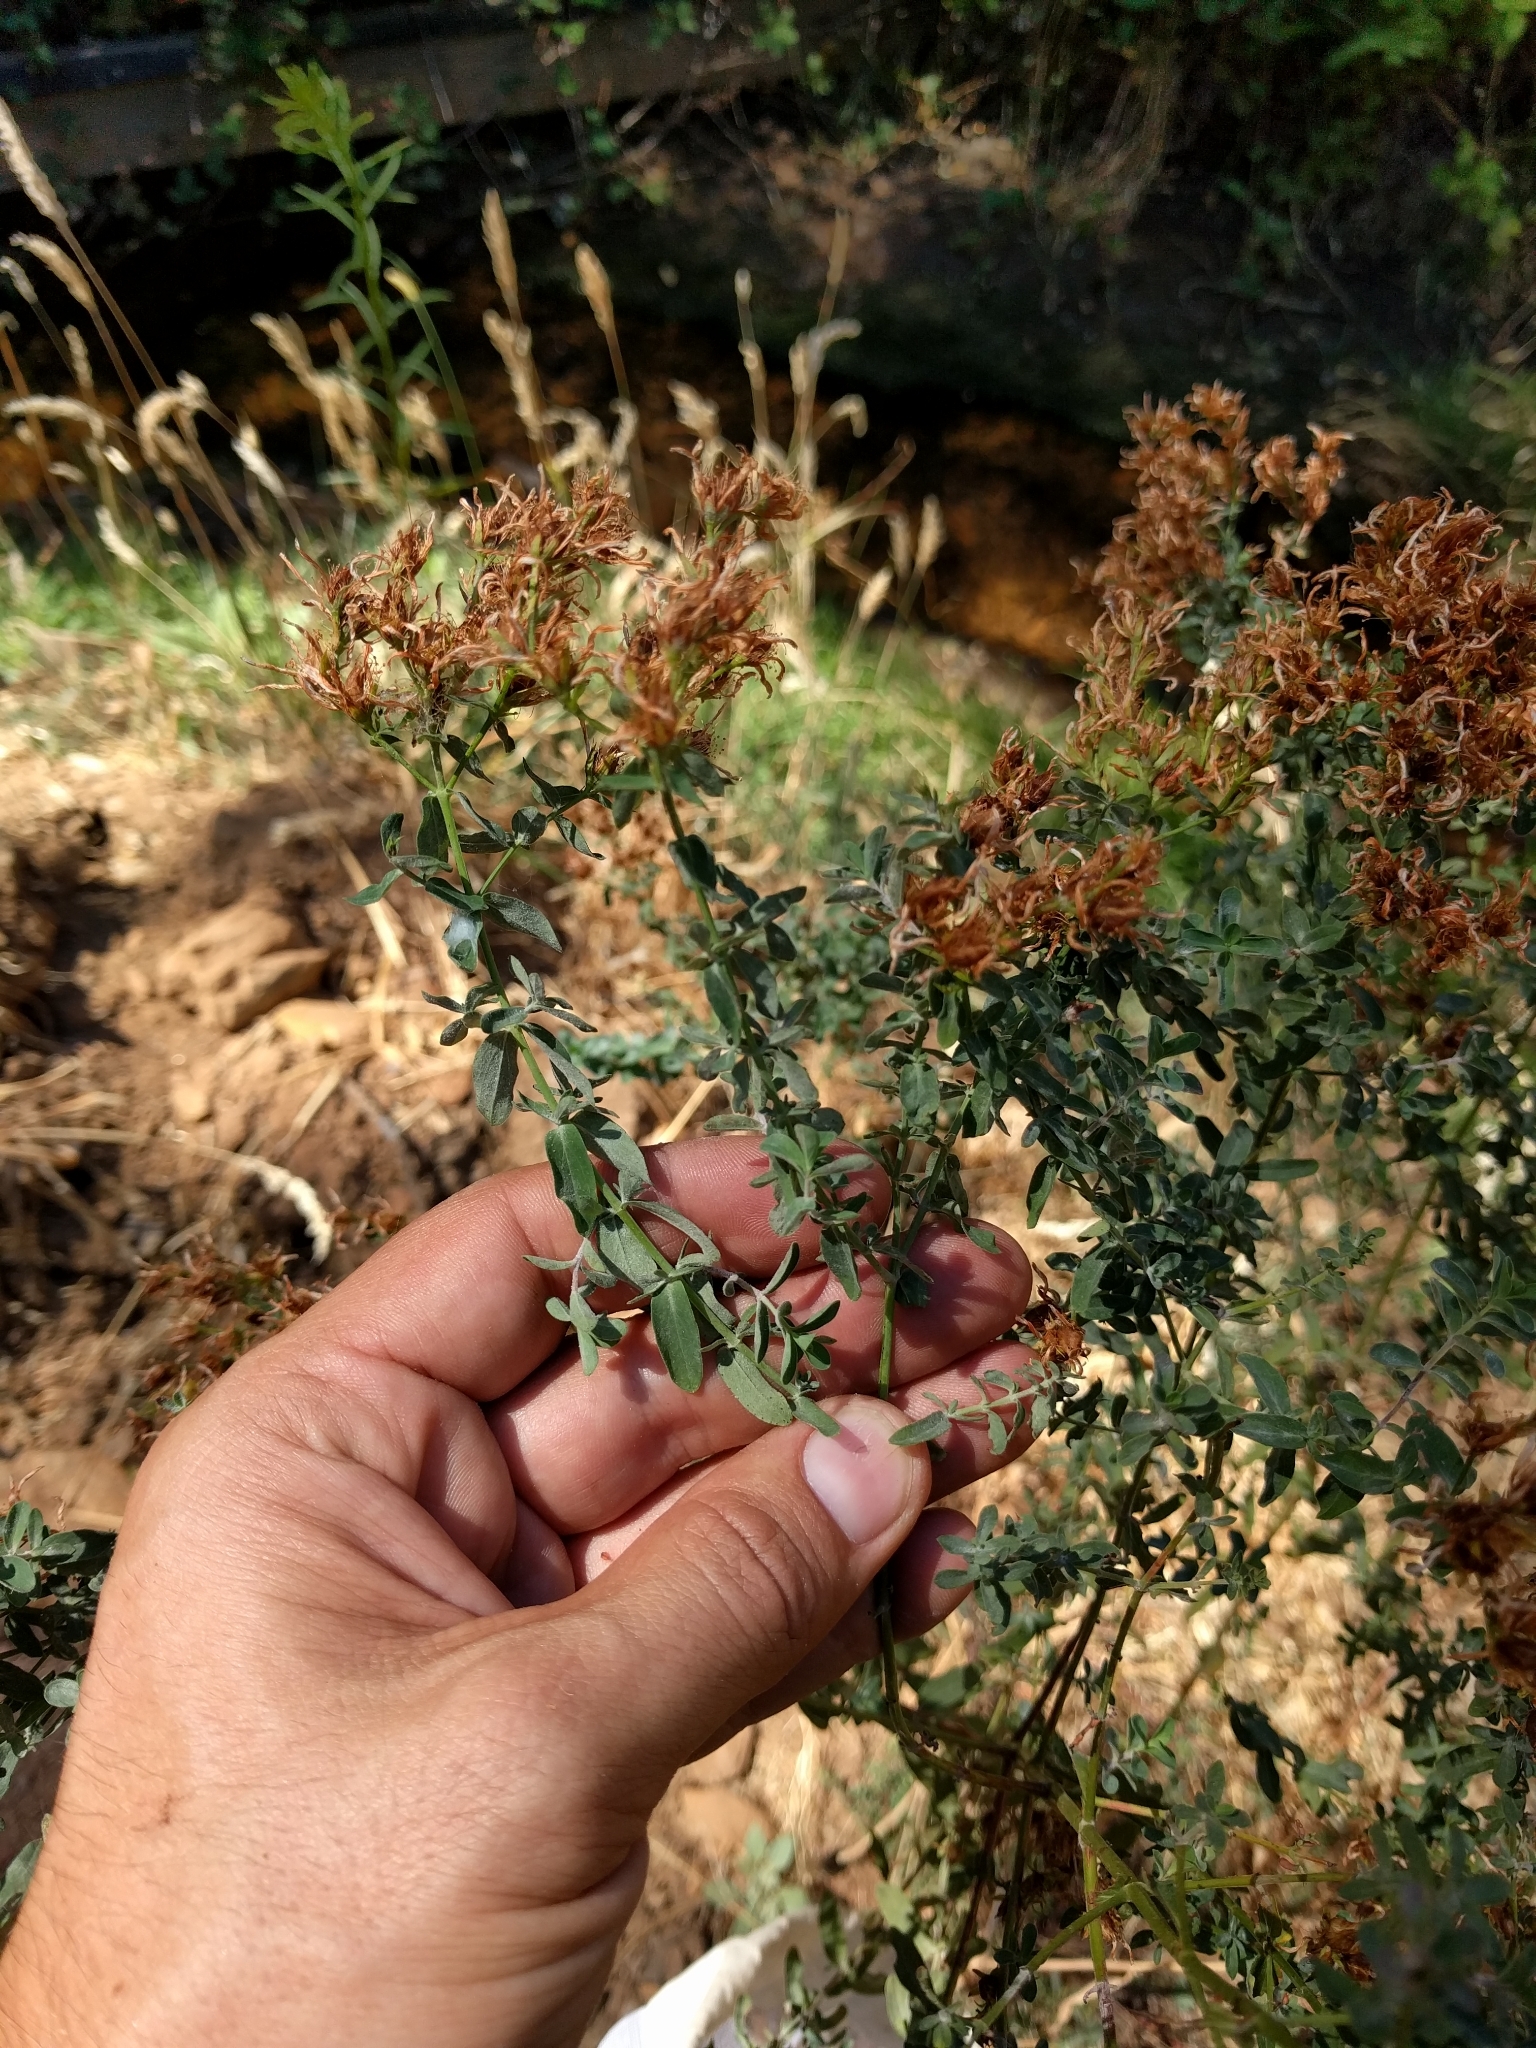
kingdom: Plantae
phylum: Tracheophyta
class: Magnoliopsida
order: Malpighiales
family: Hypericaceae
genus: Hypericum
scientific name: Hypericum perforatum
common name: Common st. johnswort
